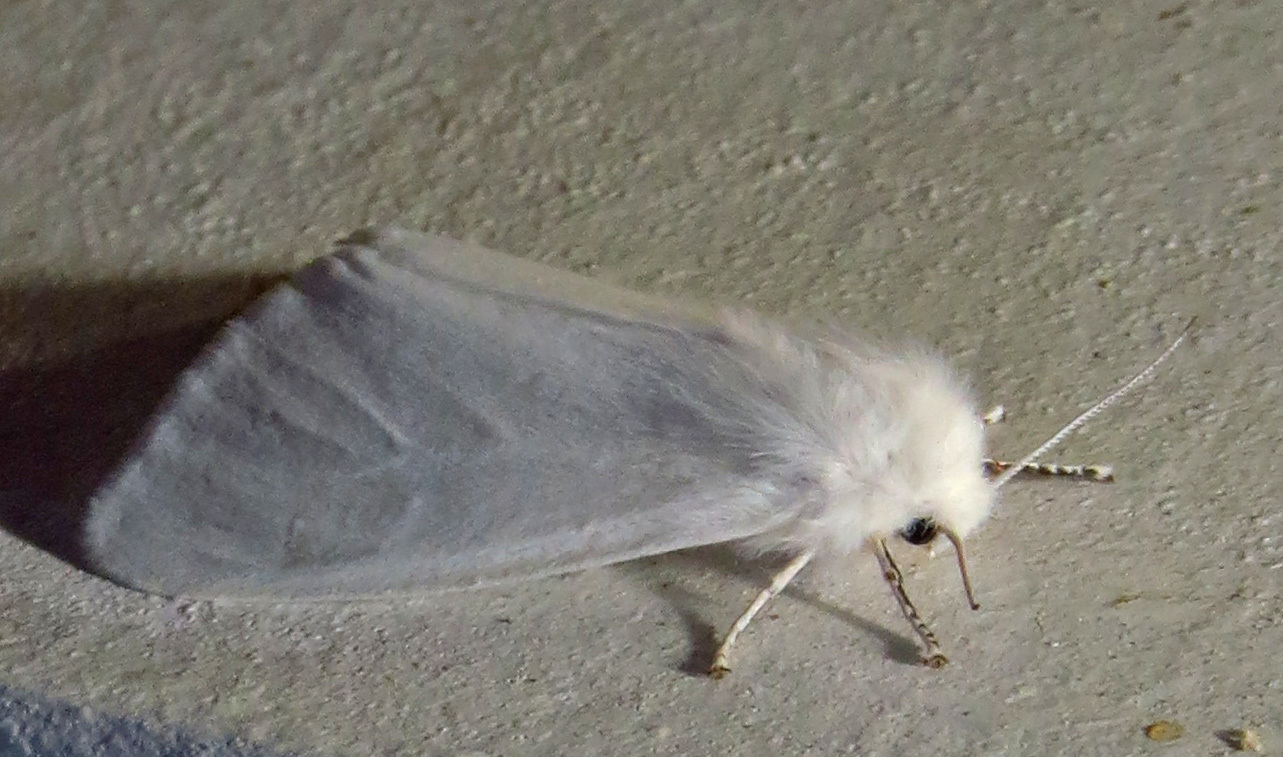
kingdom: Animalia
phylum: Arthropoda
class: Insecta
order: Lepidoptera
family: Erebidae
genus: Hyphantria
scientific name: Hyphantria cunea
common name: American white moth
